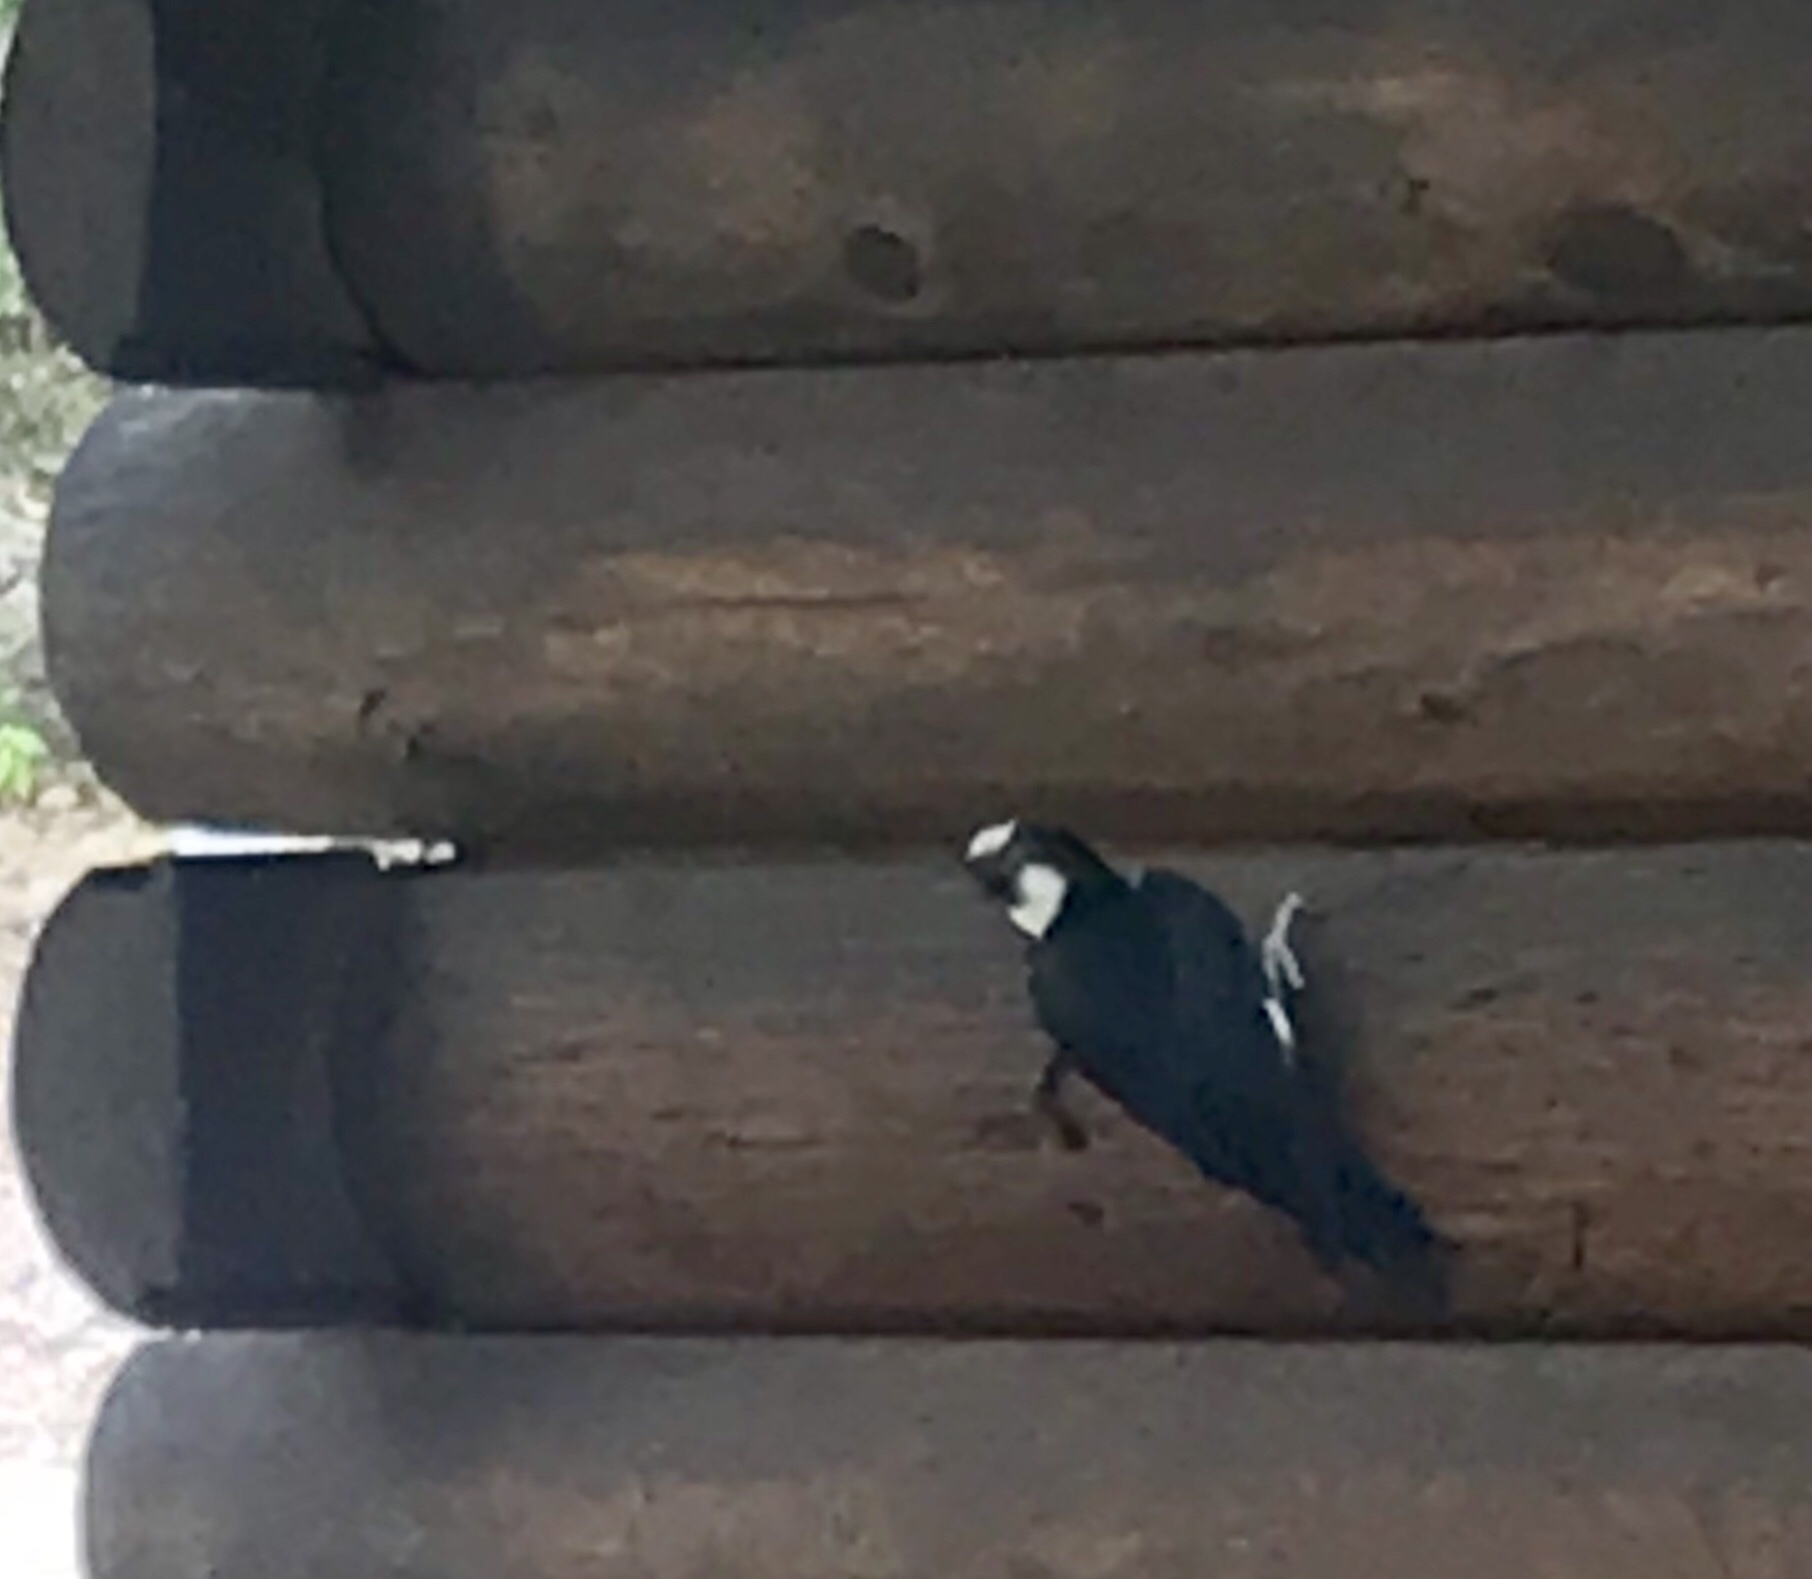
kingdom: Animalia
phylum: Chordata
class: Aves
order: Piciformes
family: Picidae
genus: Melanerpes
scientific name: Melanerpes formicivorus
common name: Acorn woodpecker
